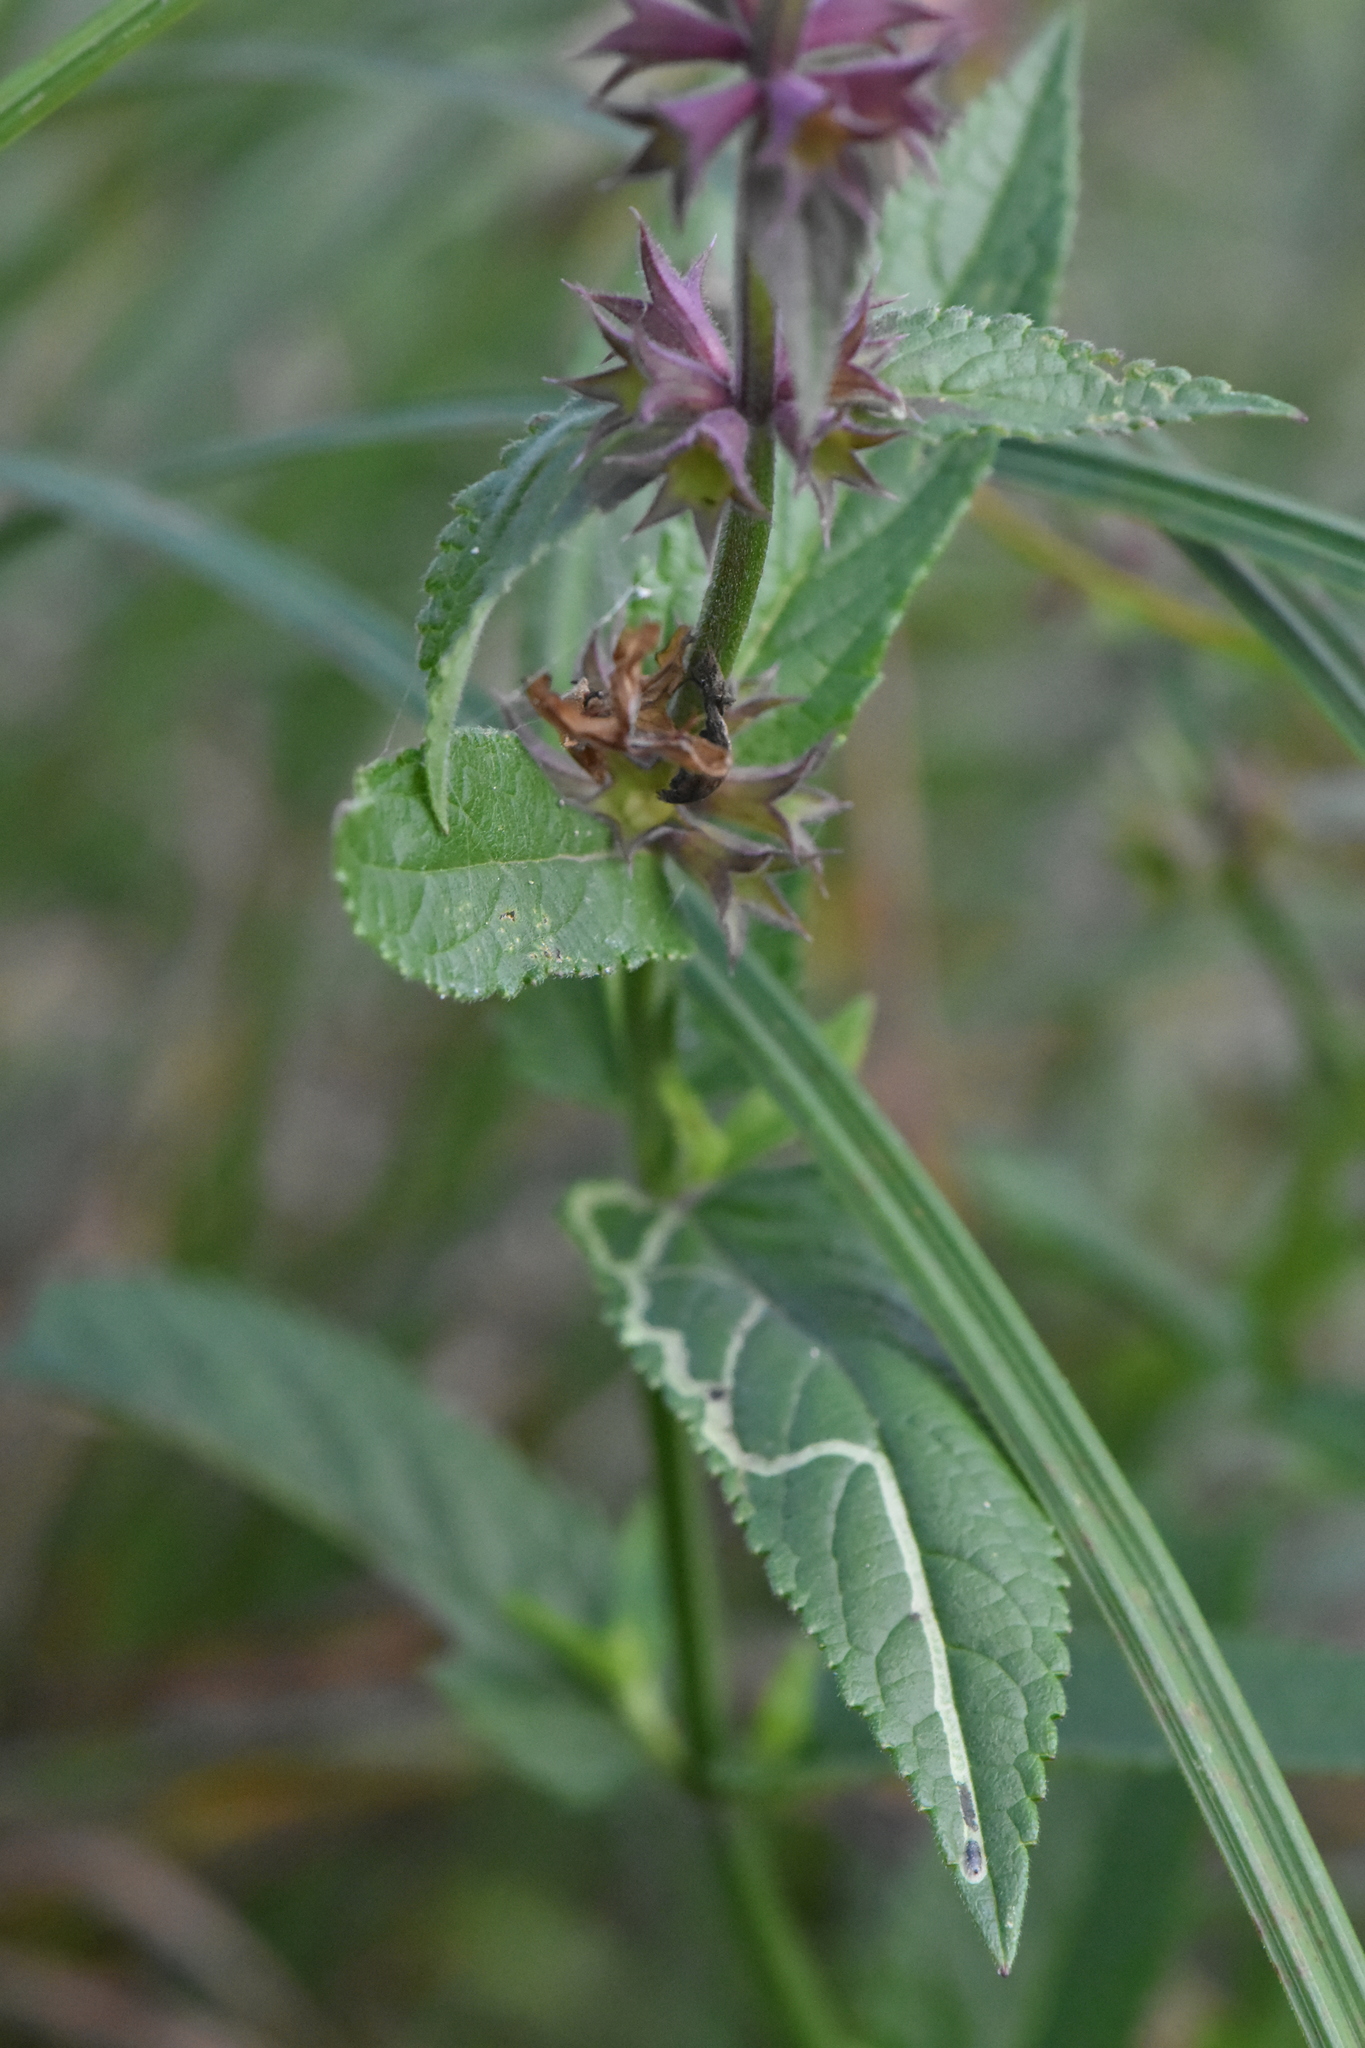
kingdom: Plantae
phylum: Tracheophyta
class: Magnoliopsida
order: Lamiales
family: Lamiaceae
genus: Stachys
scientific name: Stachys palustris
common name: Marsh woundwort
